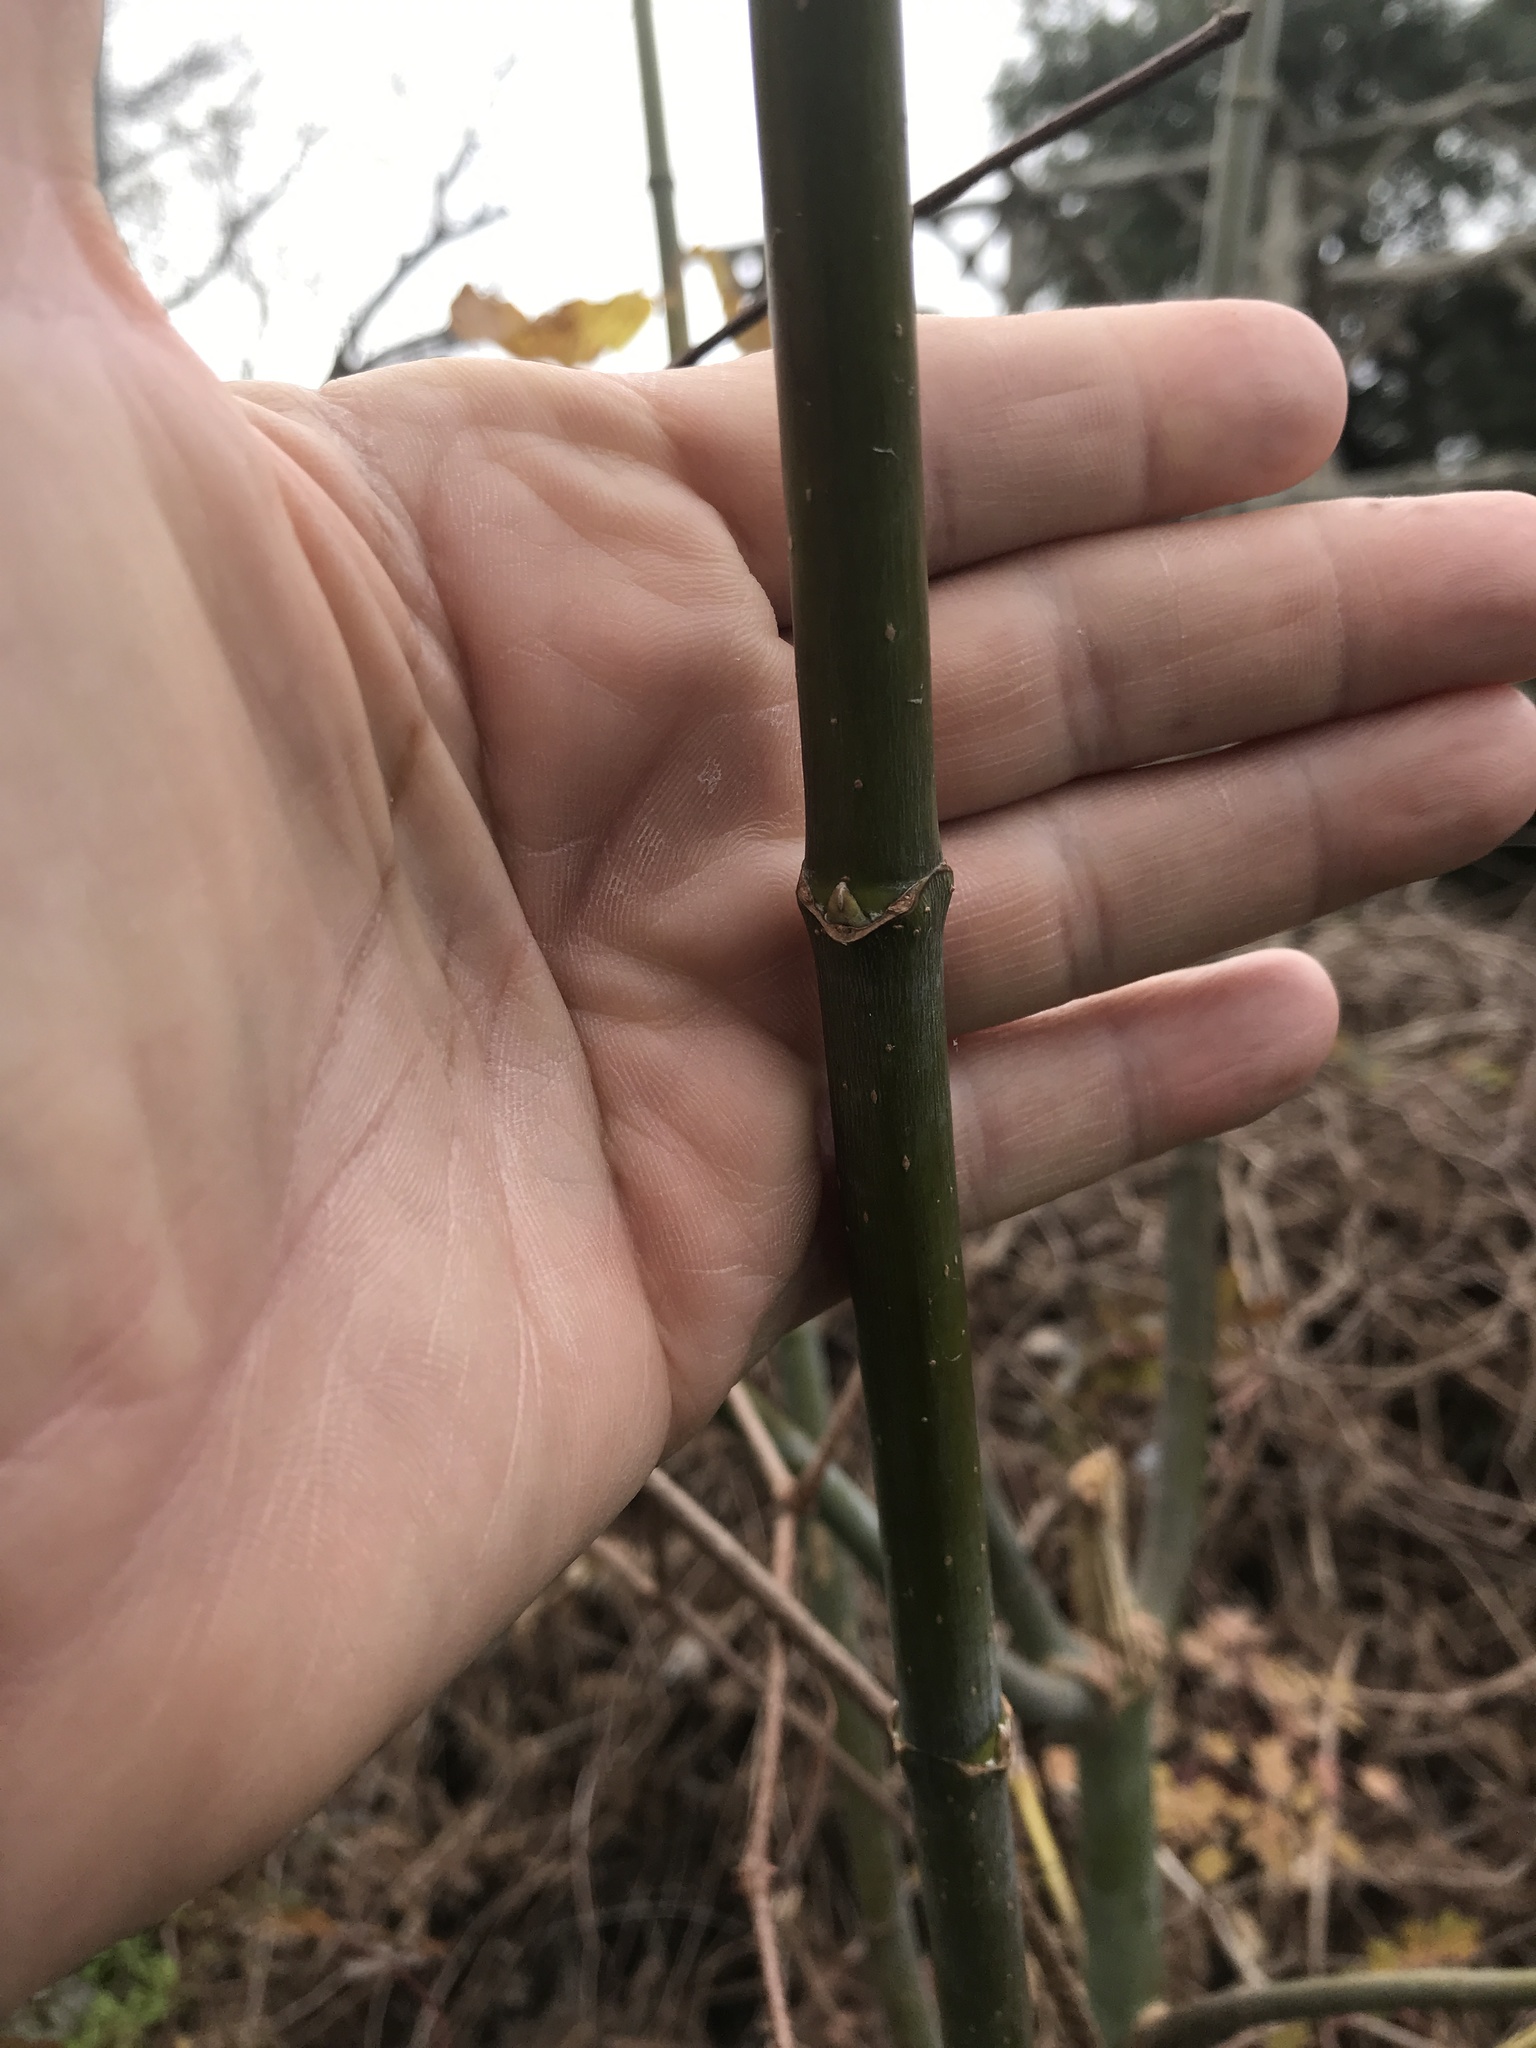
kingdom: Plantae
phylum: Tracheophyta
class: Magnoliopsida
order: Sapindales
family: Sapindaceae
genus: Acer
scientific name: Acer negundo
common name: Ashleaf maple
